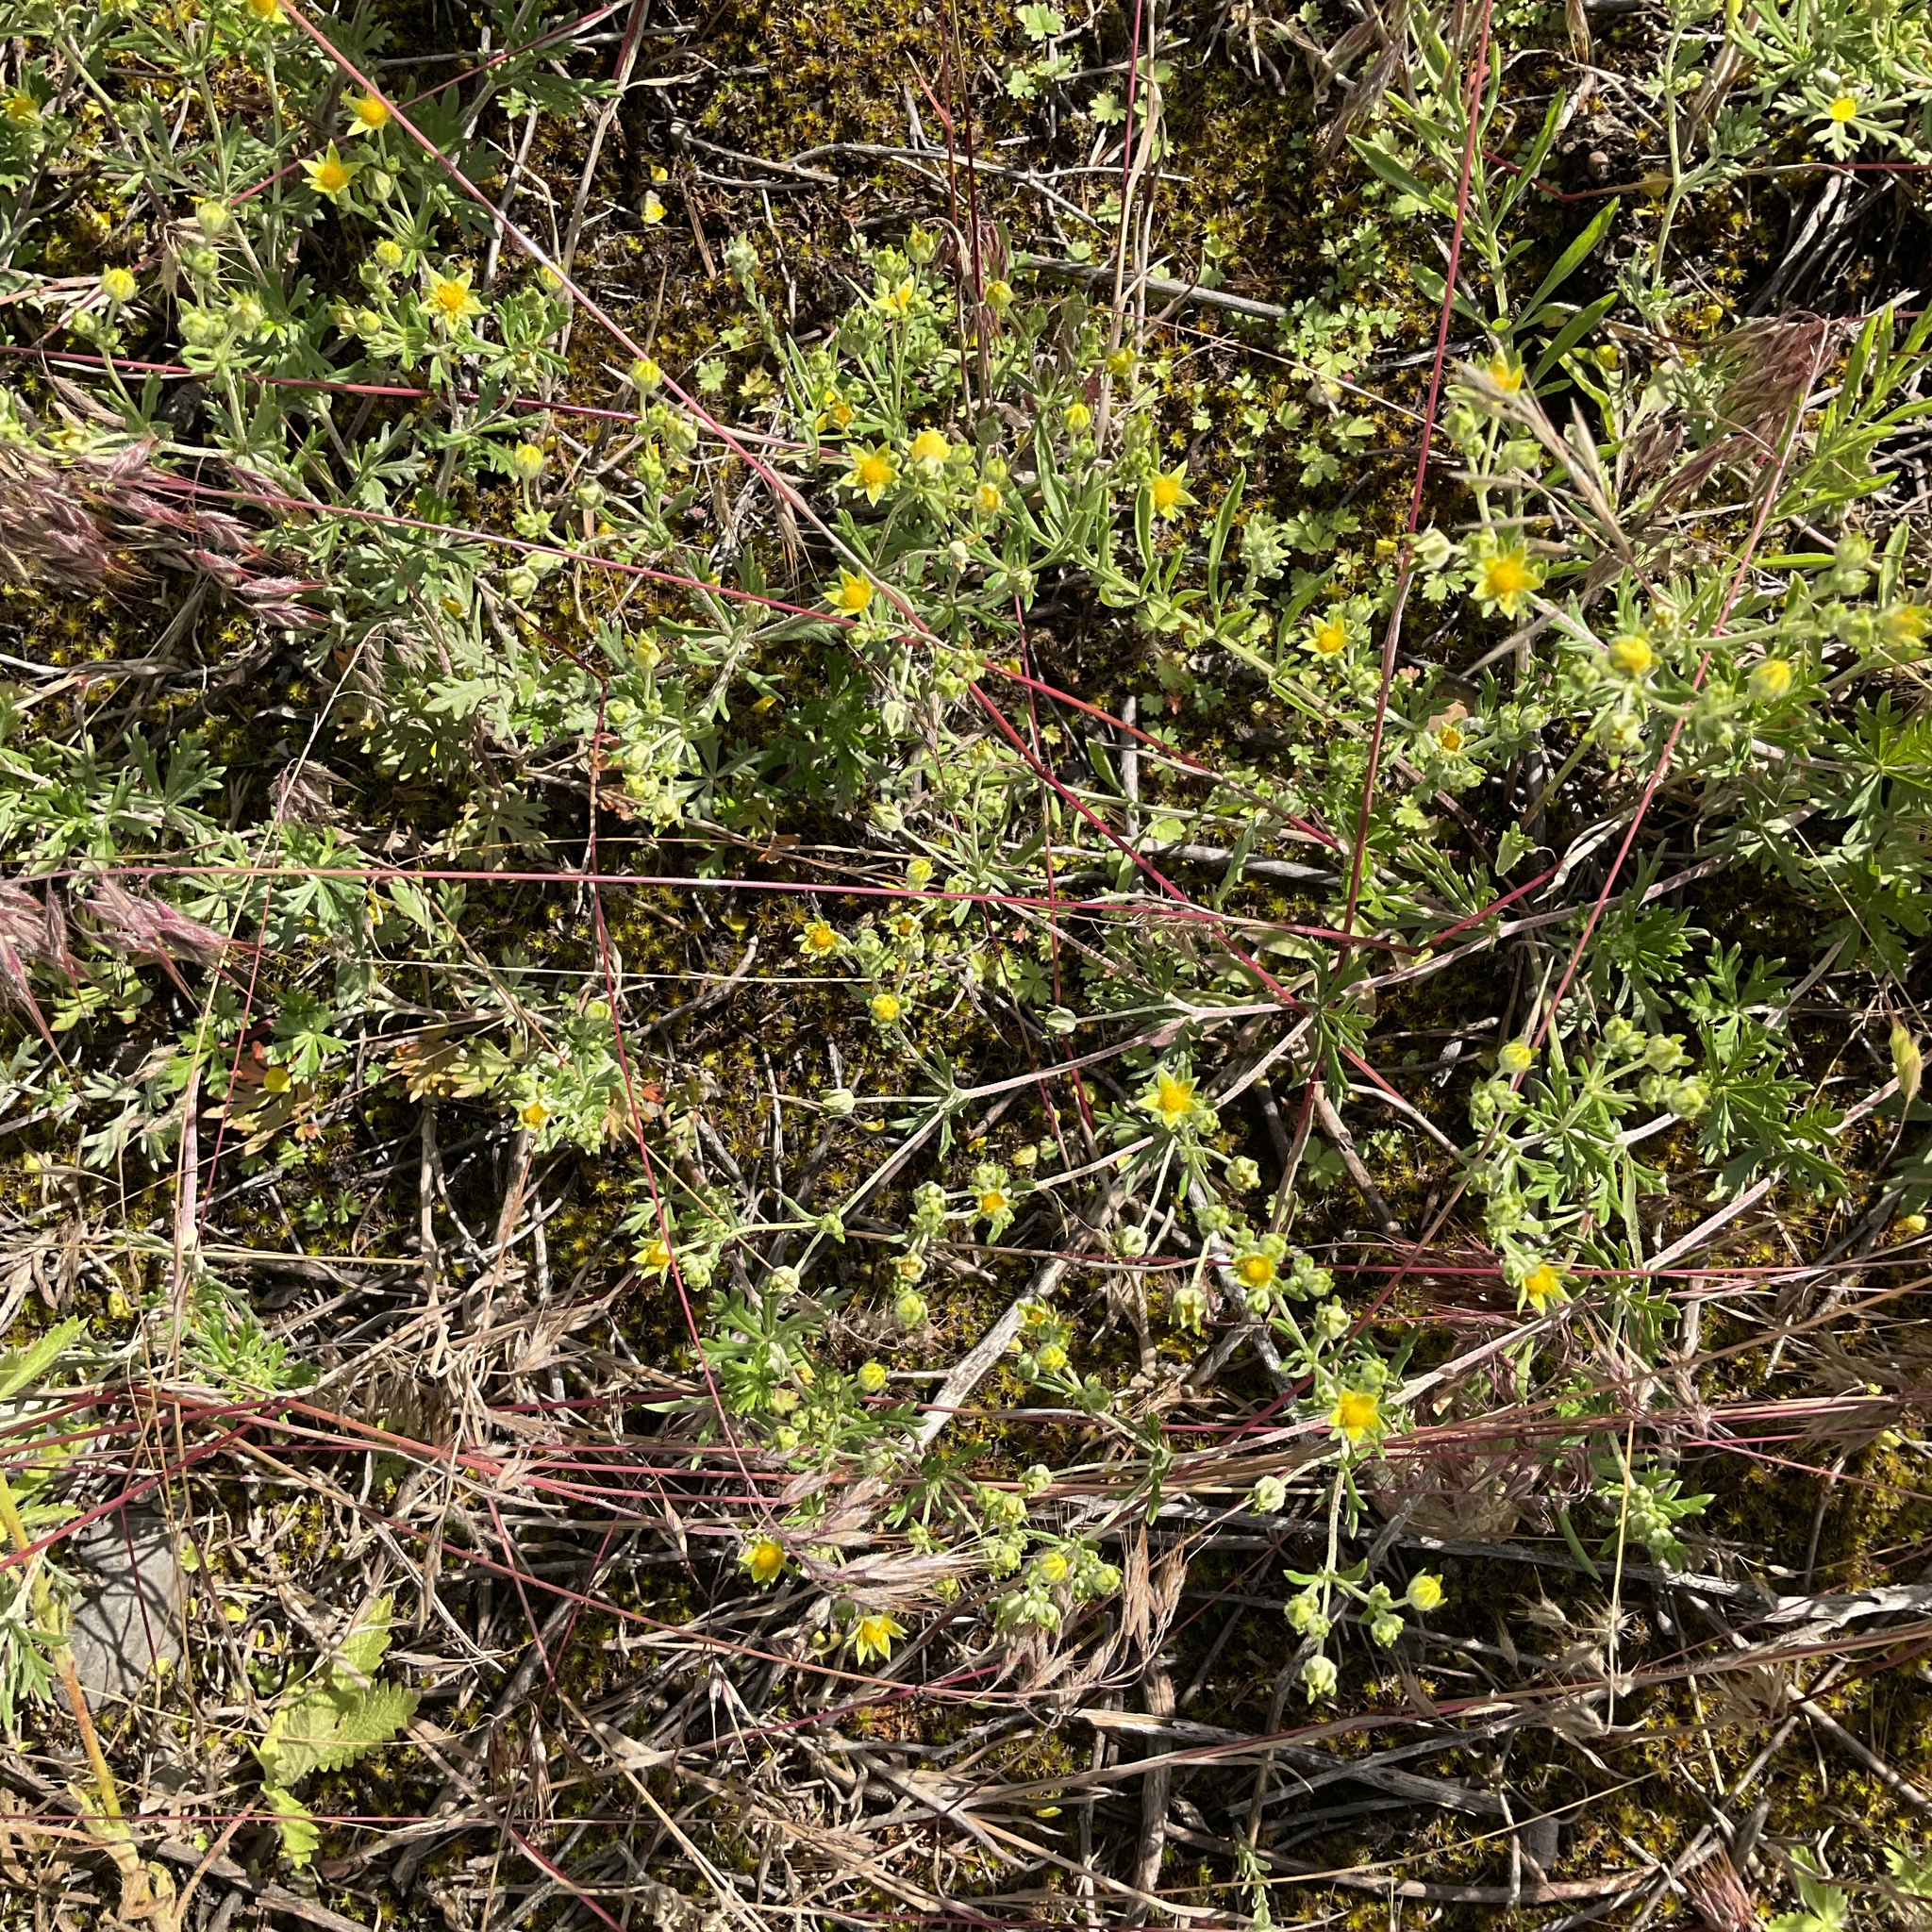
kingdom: Plantae
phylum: Tracheophyta
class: Magnoliopsida
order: Rosales
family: Rosaceae
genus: Potentilla
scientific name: Potentilla argentea
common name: Hoary cinquefoil
